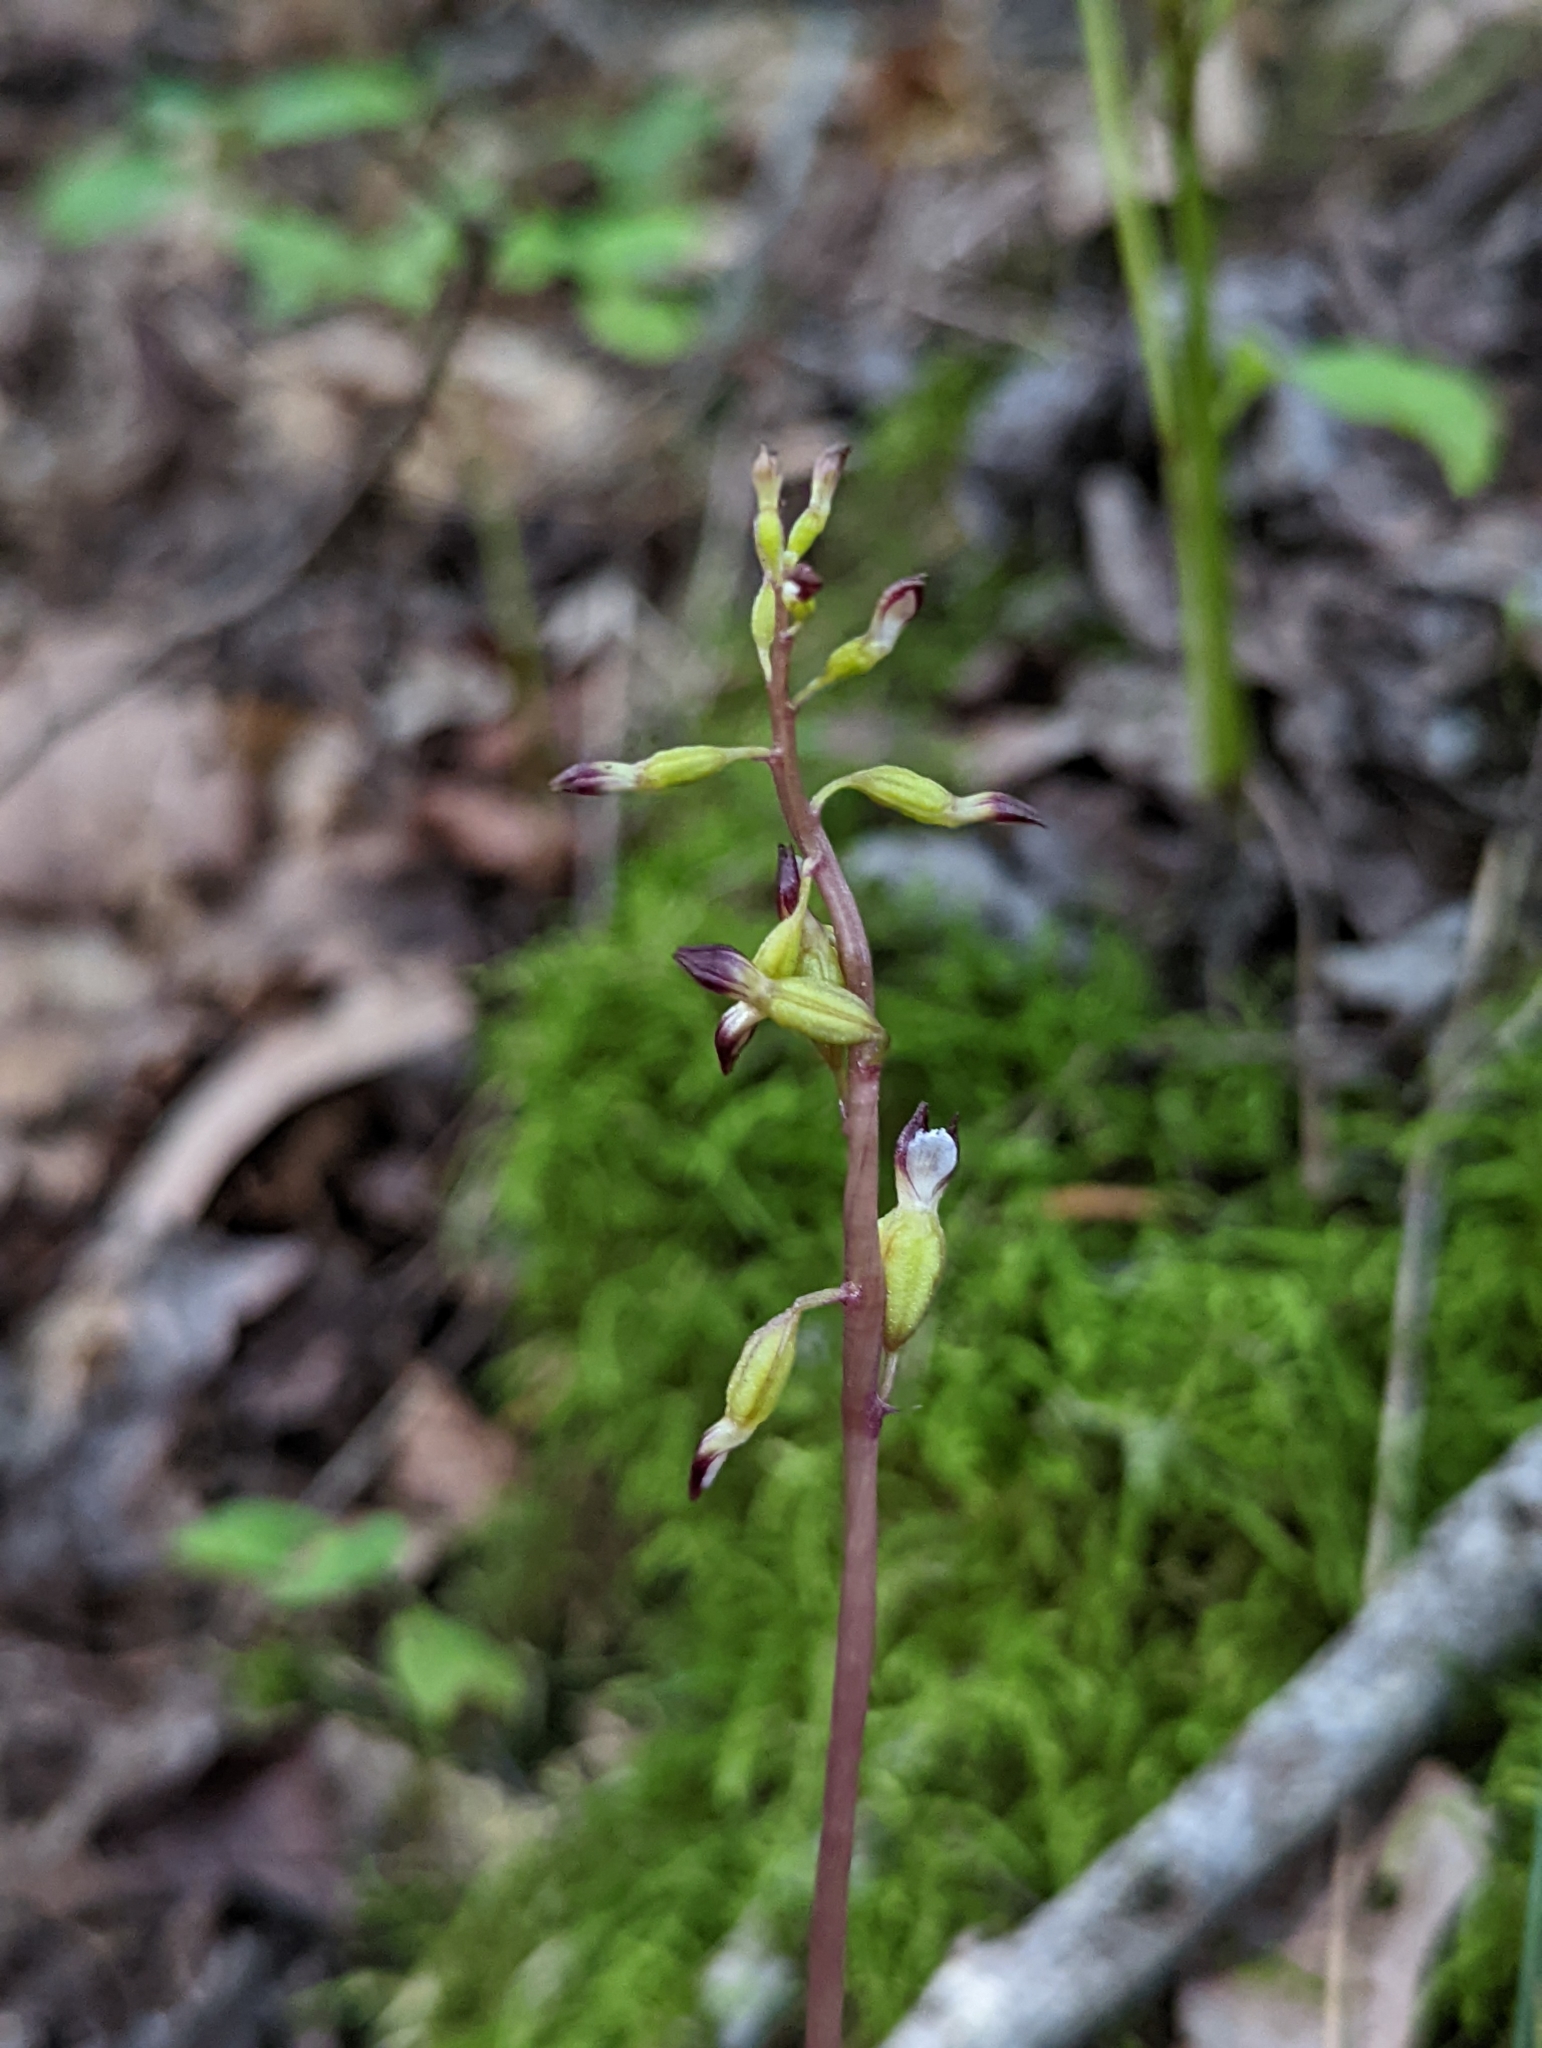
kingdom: Plantae
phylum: Tracheophyta
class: Liliopsida
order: Asparagales
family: Orchidaceae
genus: Corallorhiza
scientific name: Corallorhiza odontorhiza
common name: Autumn coralroot
